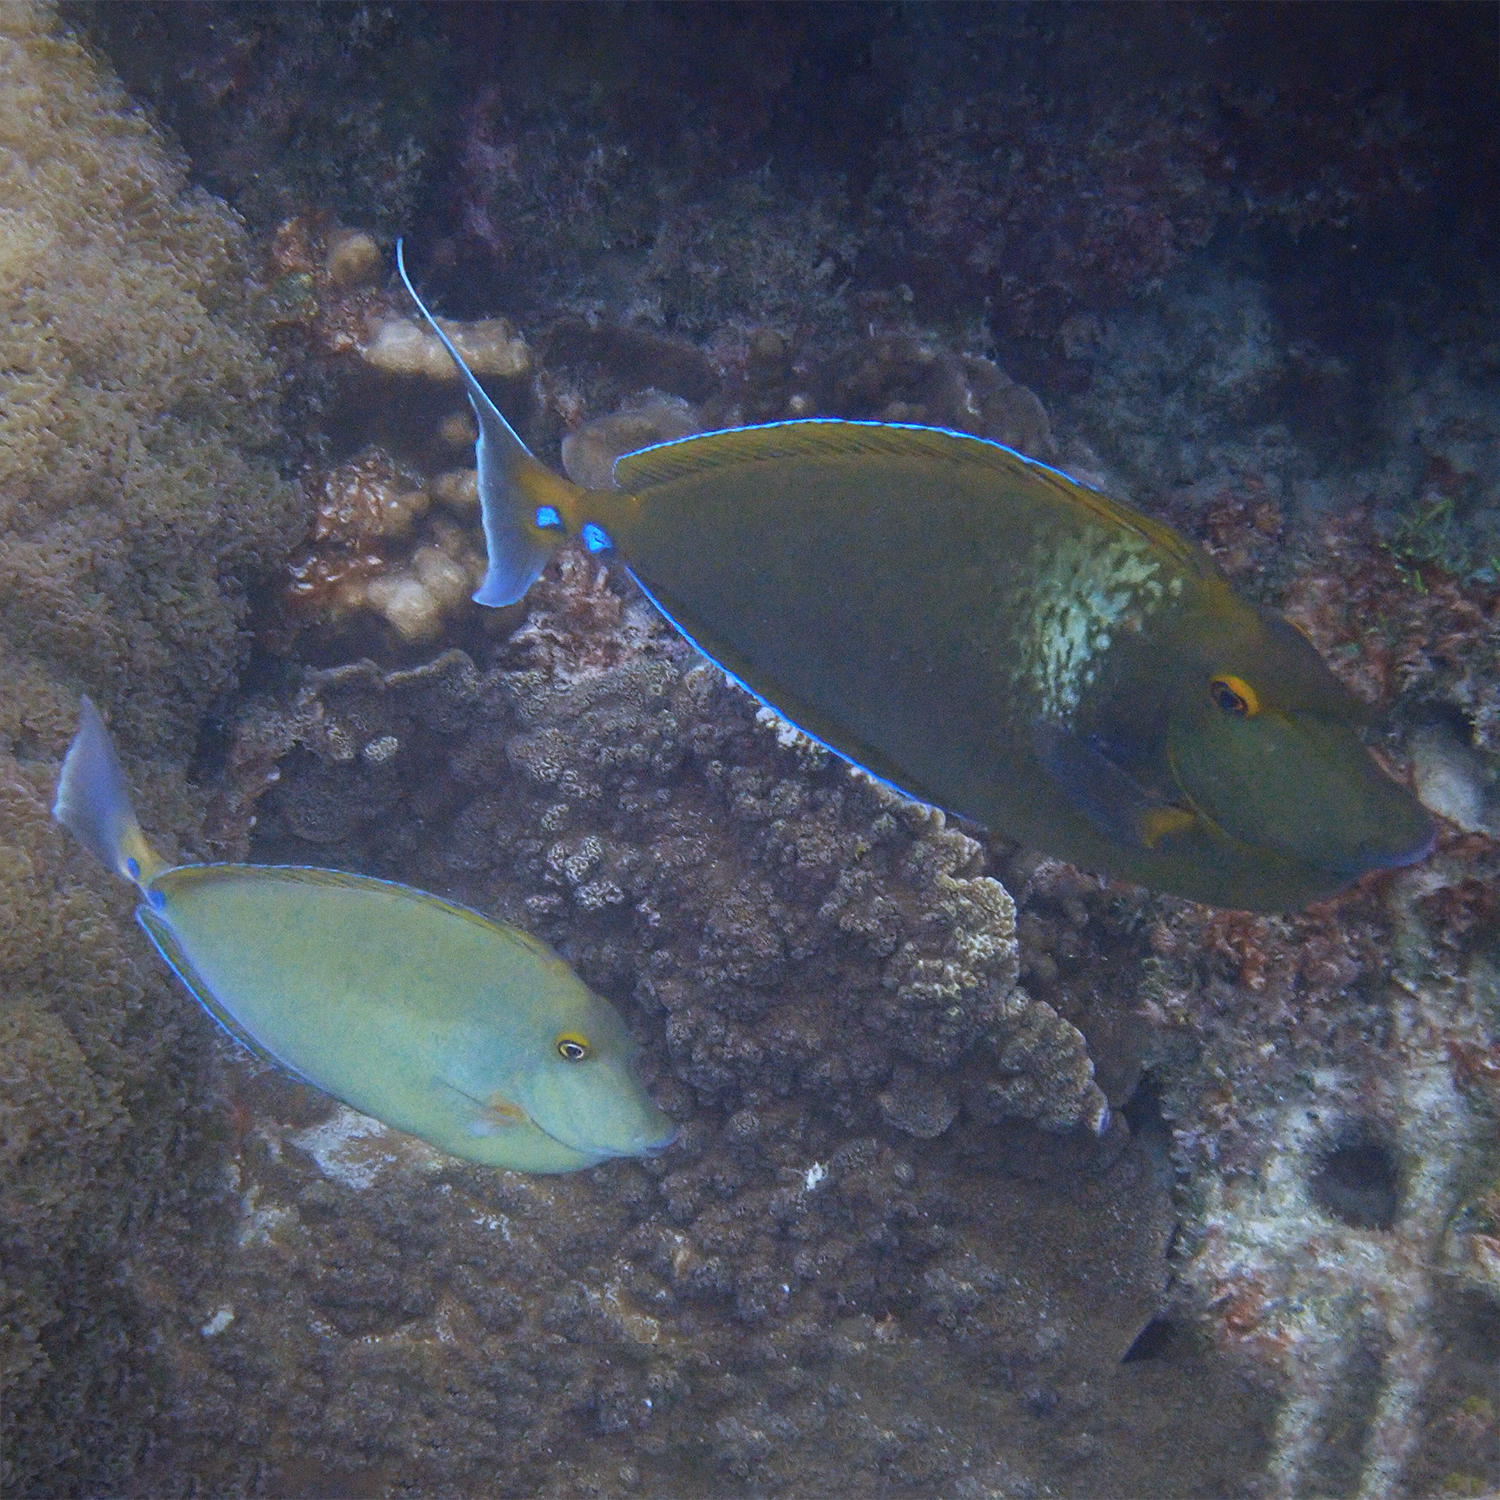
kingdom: Animalia
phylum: Chordata
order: Perciformes
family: Acanthuridae
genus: Naso
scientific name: Naso unicornis
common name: Bluespine unicornfish
